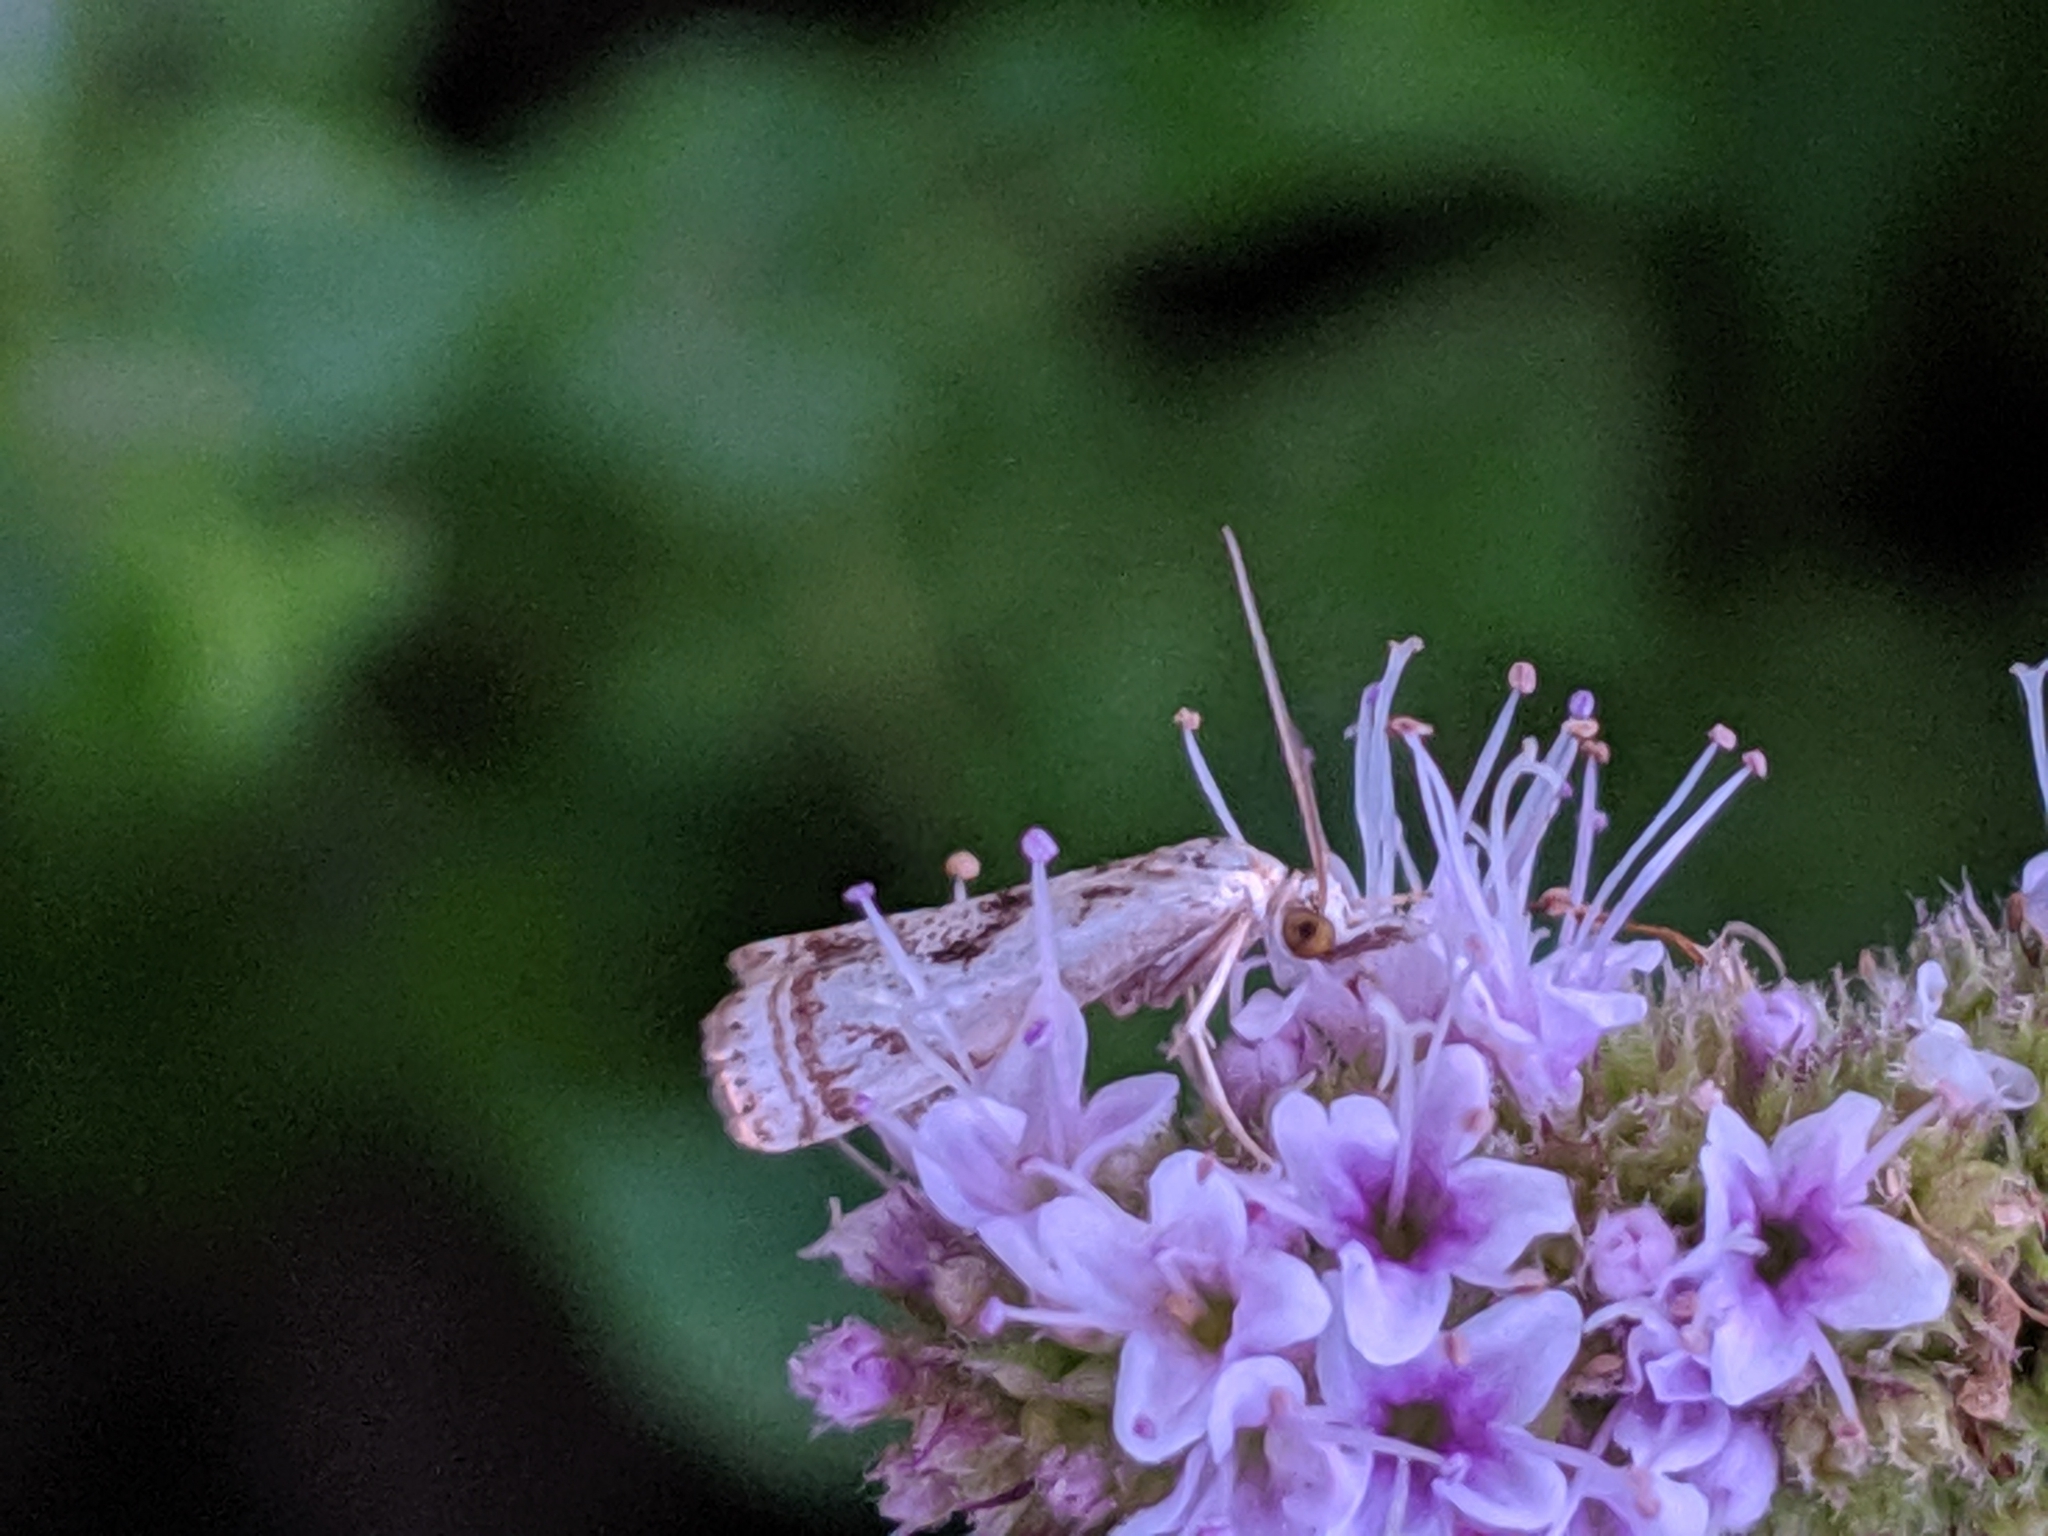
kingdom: Animalia
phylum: Arthropoda
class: Insecta
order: Lepidoptera
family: Crambidae
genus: Microcrambus
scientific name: Microcrambus elegans
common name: Elegant grass-veneer
